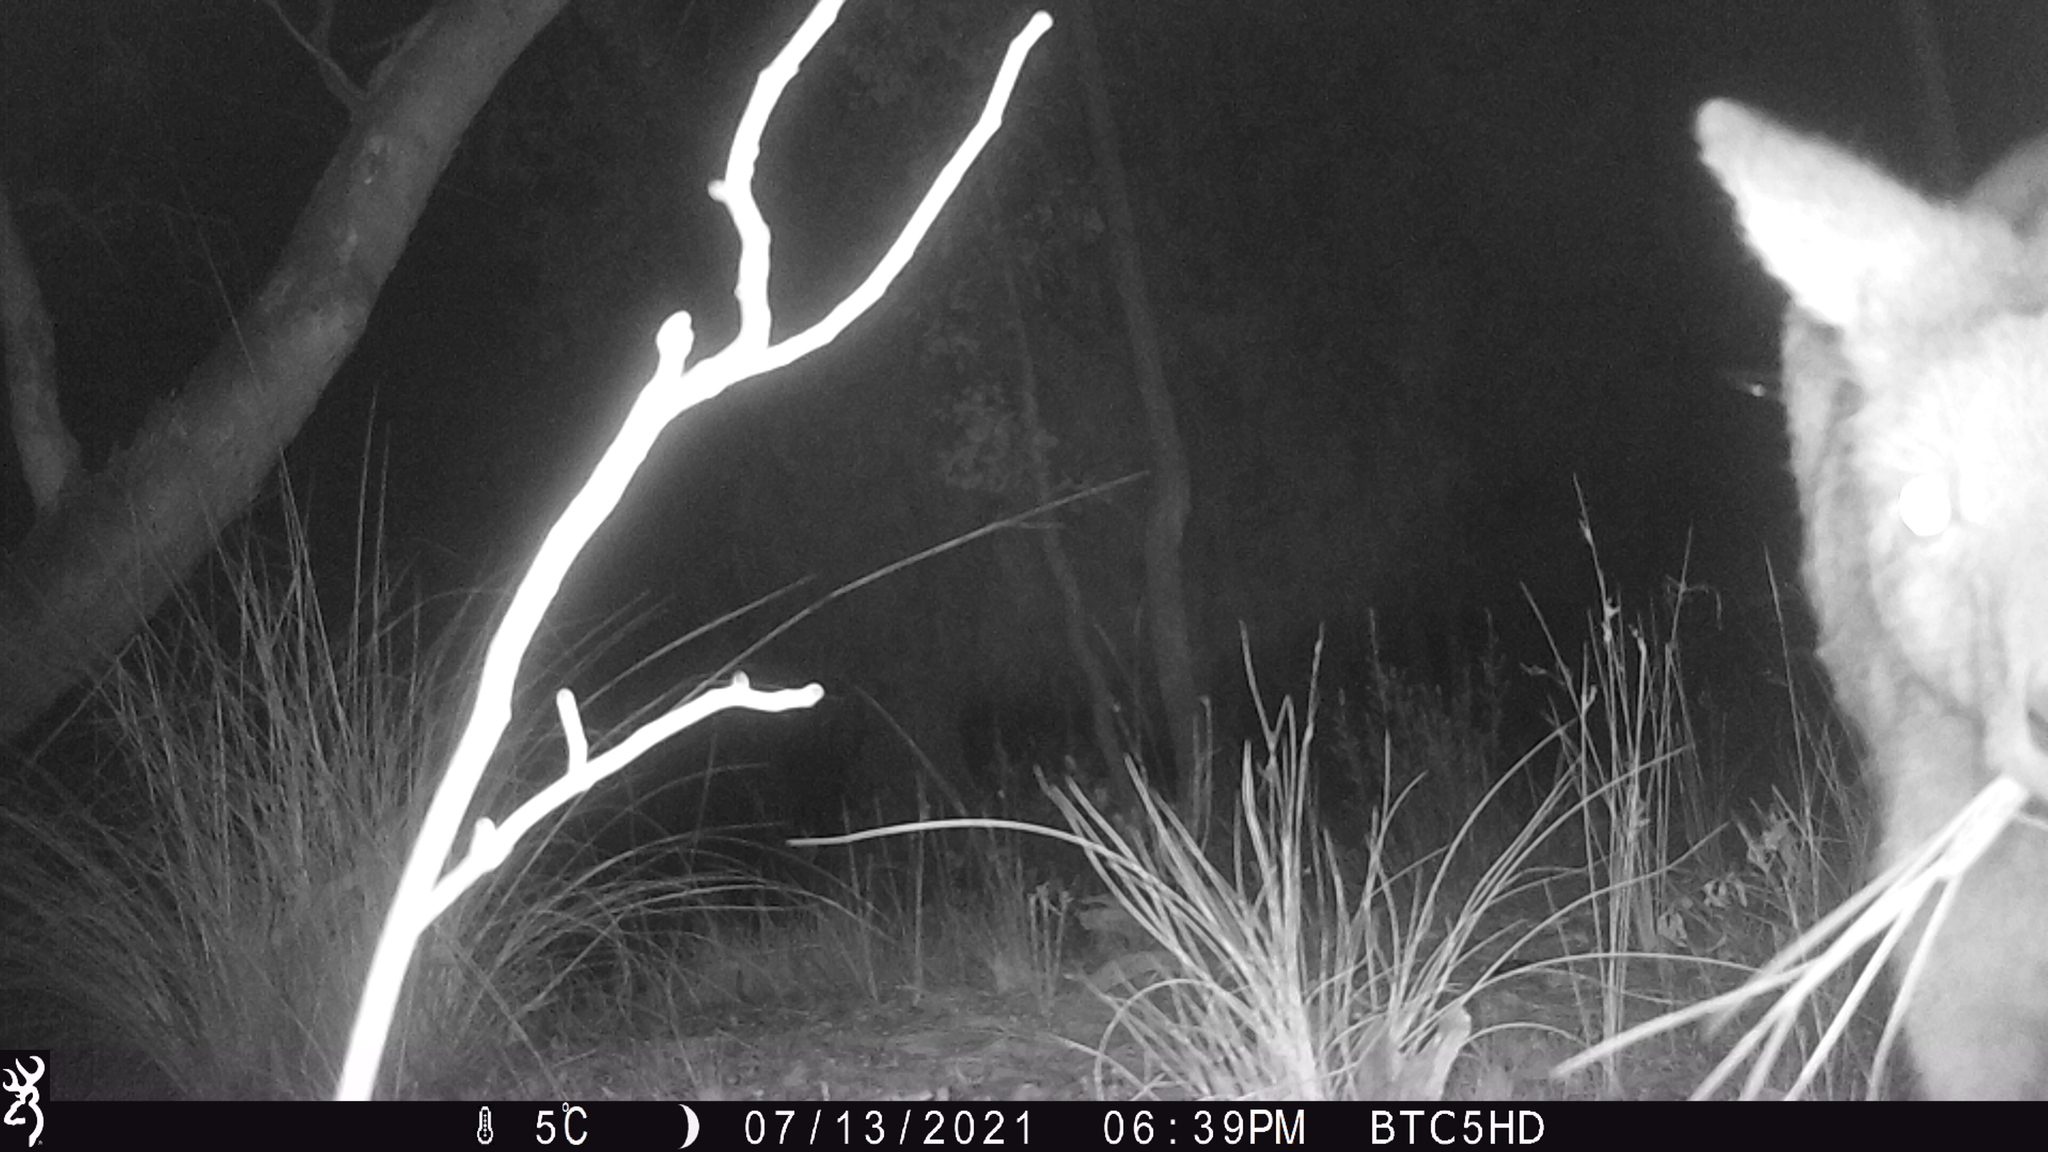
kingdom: Animalia
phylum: Chordata
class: Mammalia
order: Diprotodontia
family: Macropodidae
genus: Macropus
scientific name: Macropus giganteus
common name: Eastern grey kangaroo
